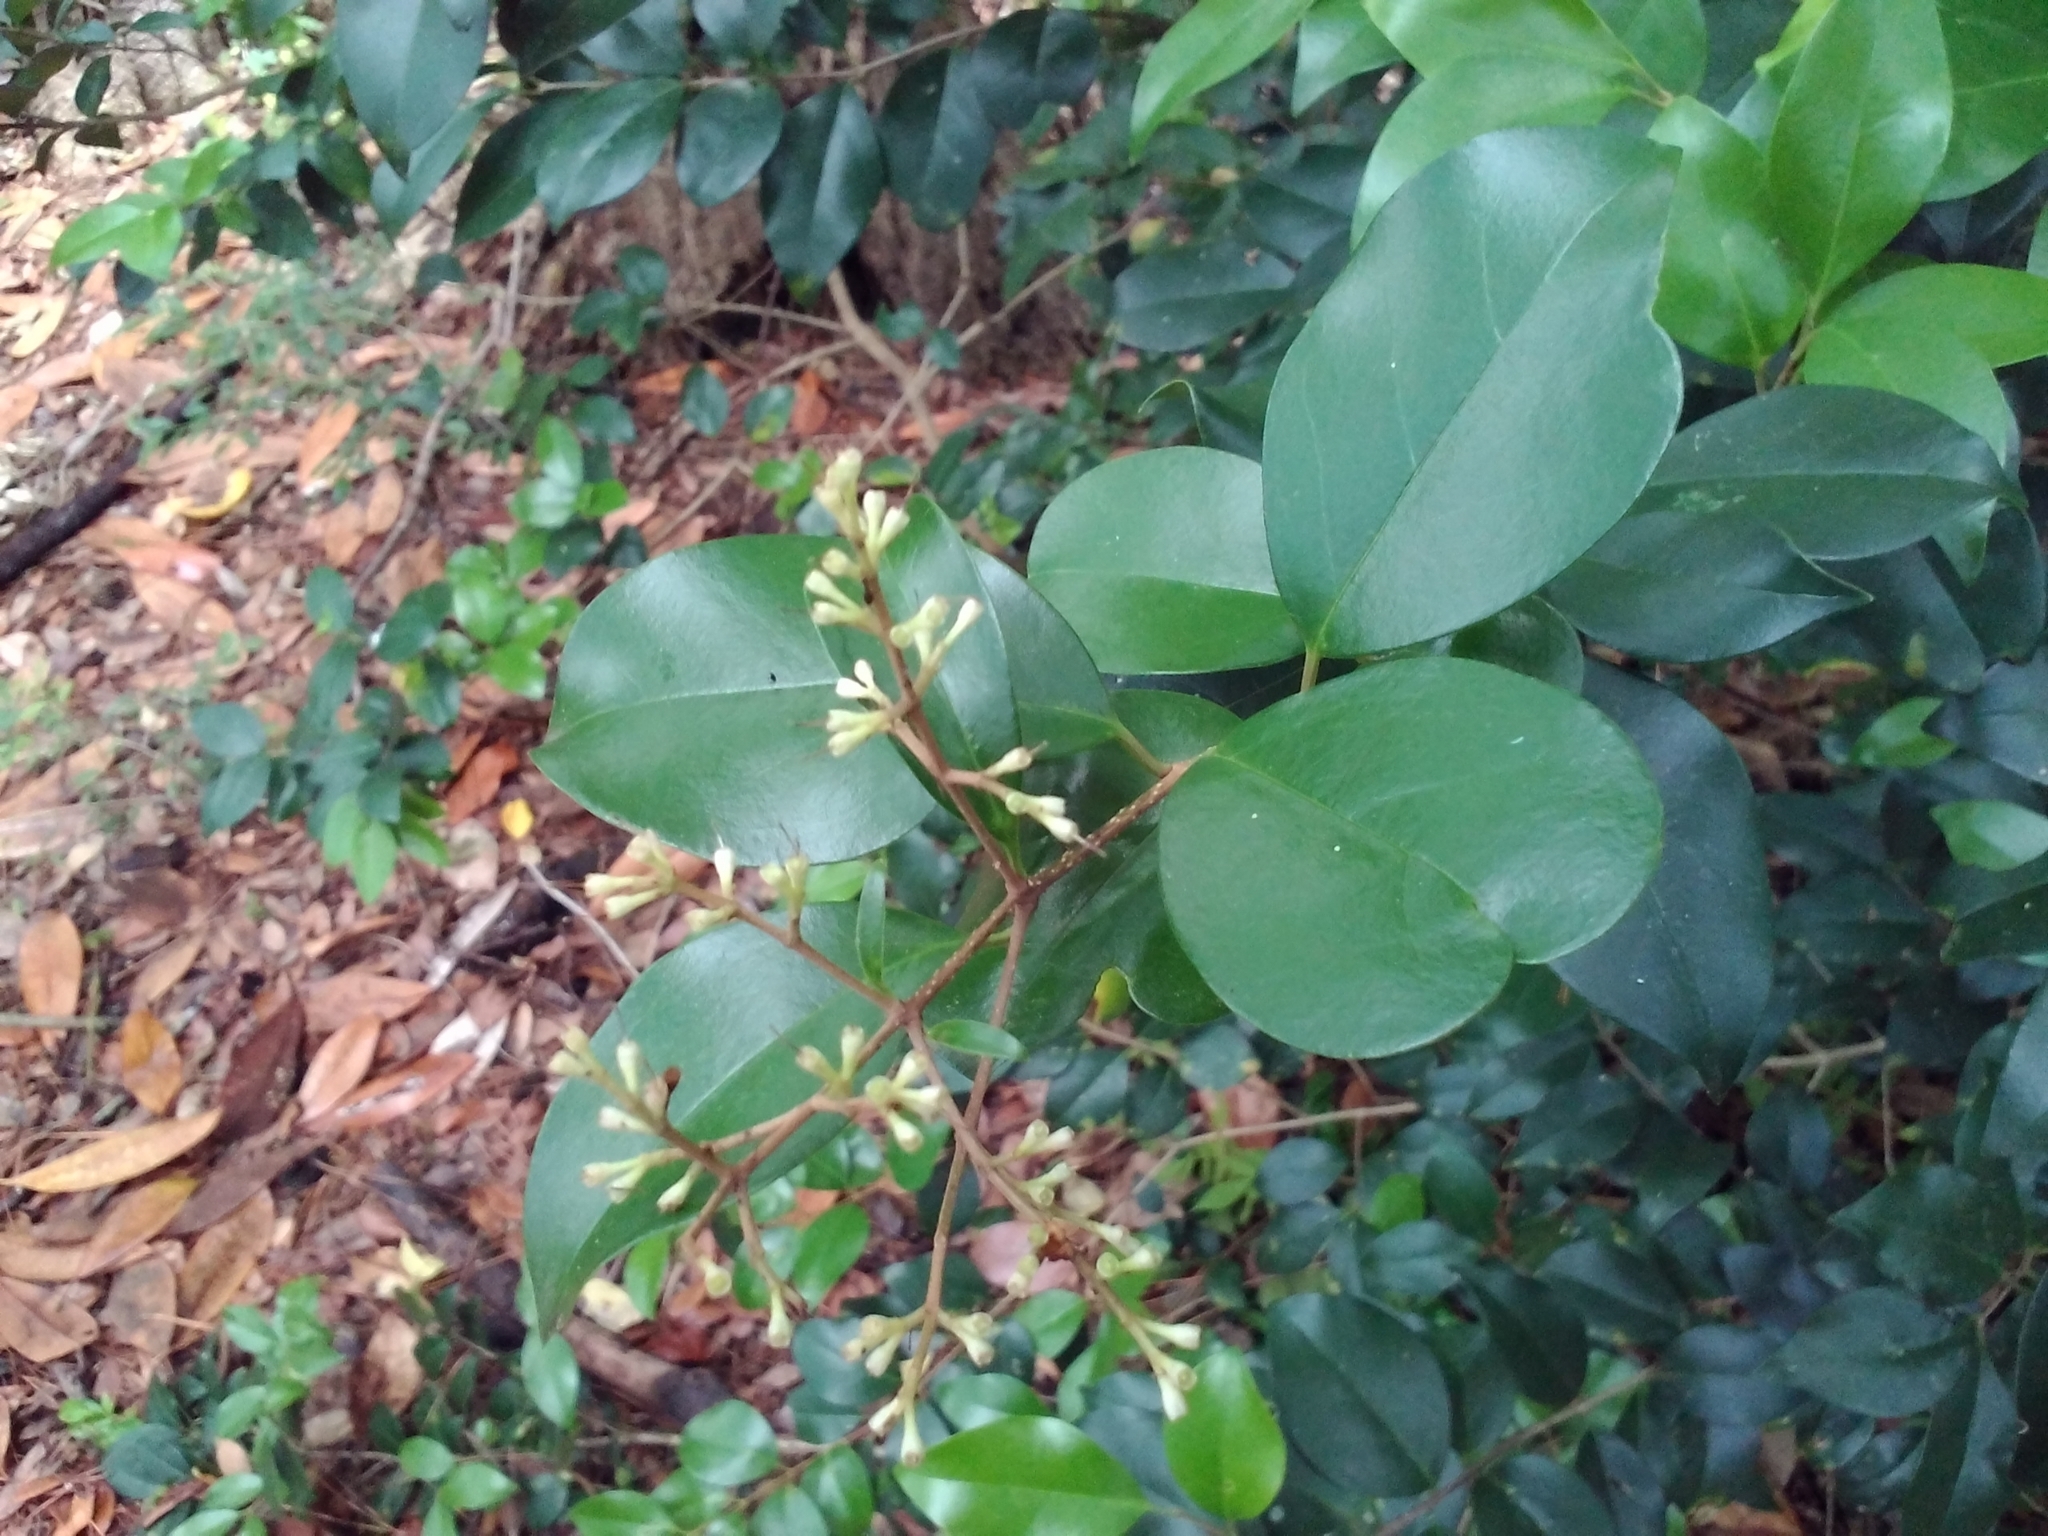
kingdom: Plantae
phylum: Tracheophyta
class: Magnoliopsida
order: Lamiales
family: Oleaceae
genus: Ligustrum
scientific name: Ligustrum japonicum
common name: Japanese privet
